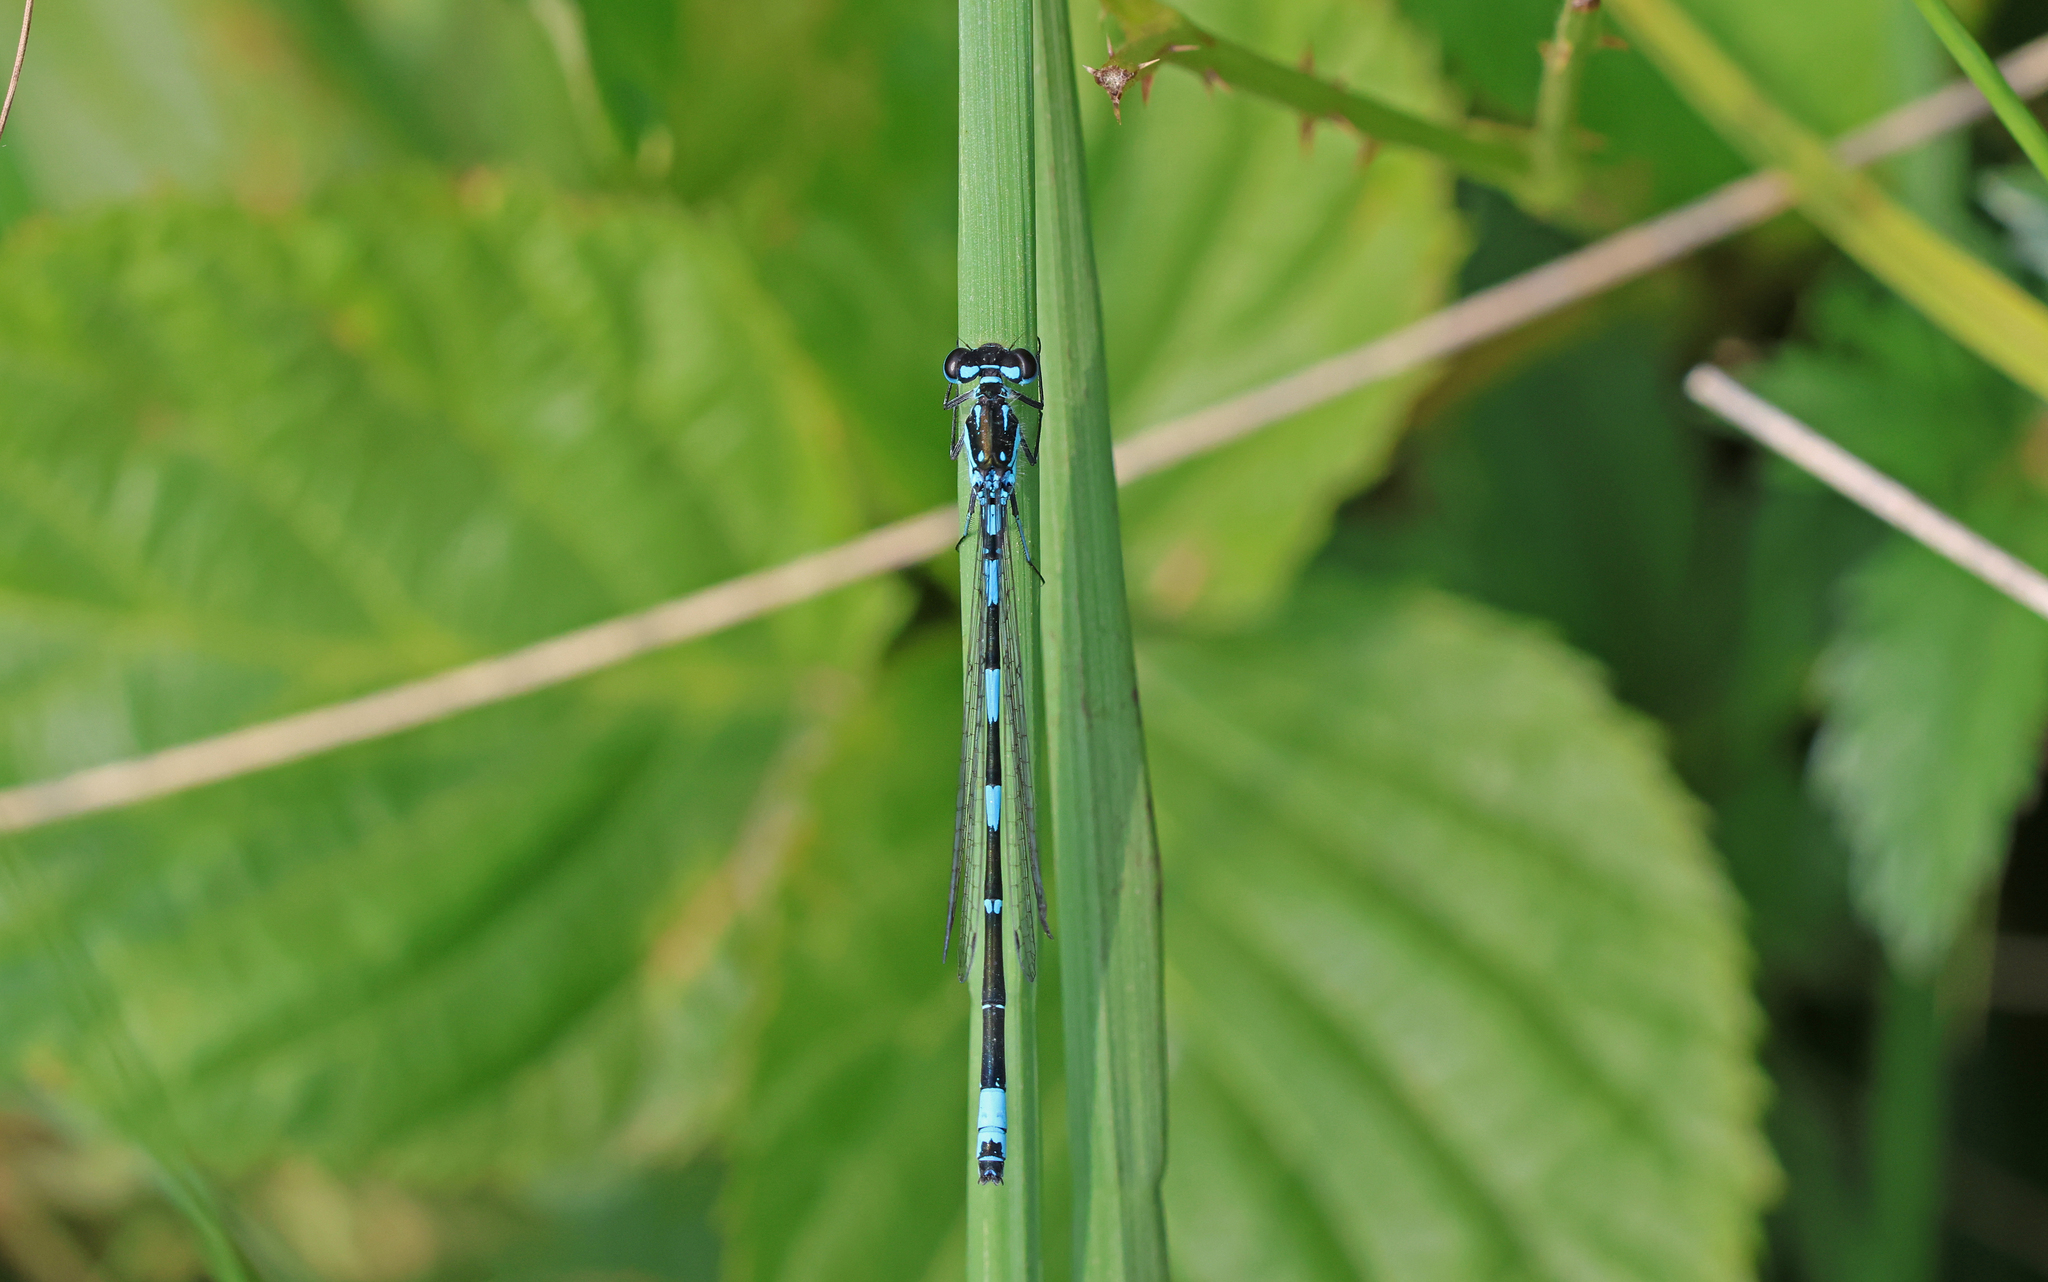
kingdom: Animalia
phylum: Arthropoda
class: Insecta
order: Odonata
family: Coenagrionidae
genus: Coenagrion
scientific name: Coenagrion pulchellum
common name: Variable bluet
